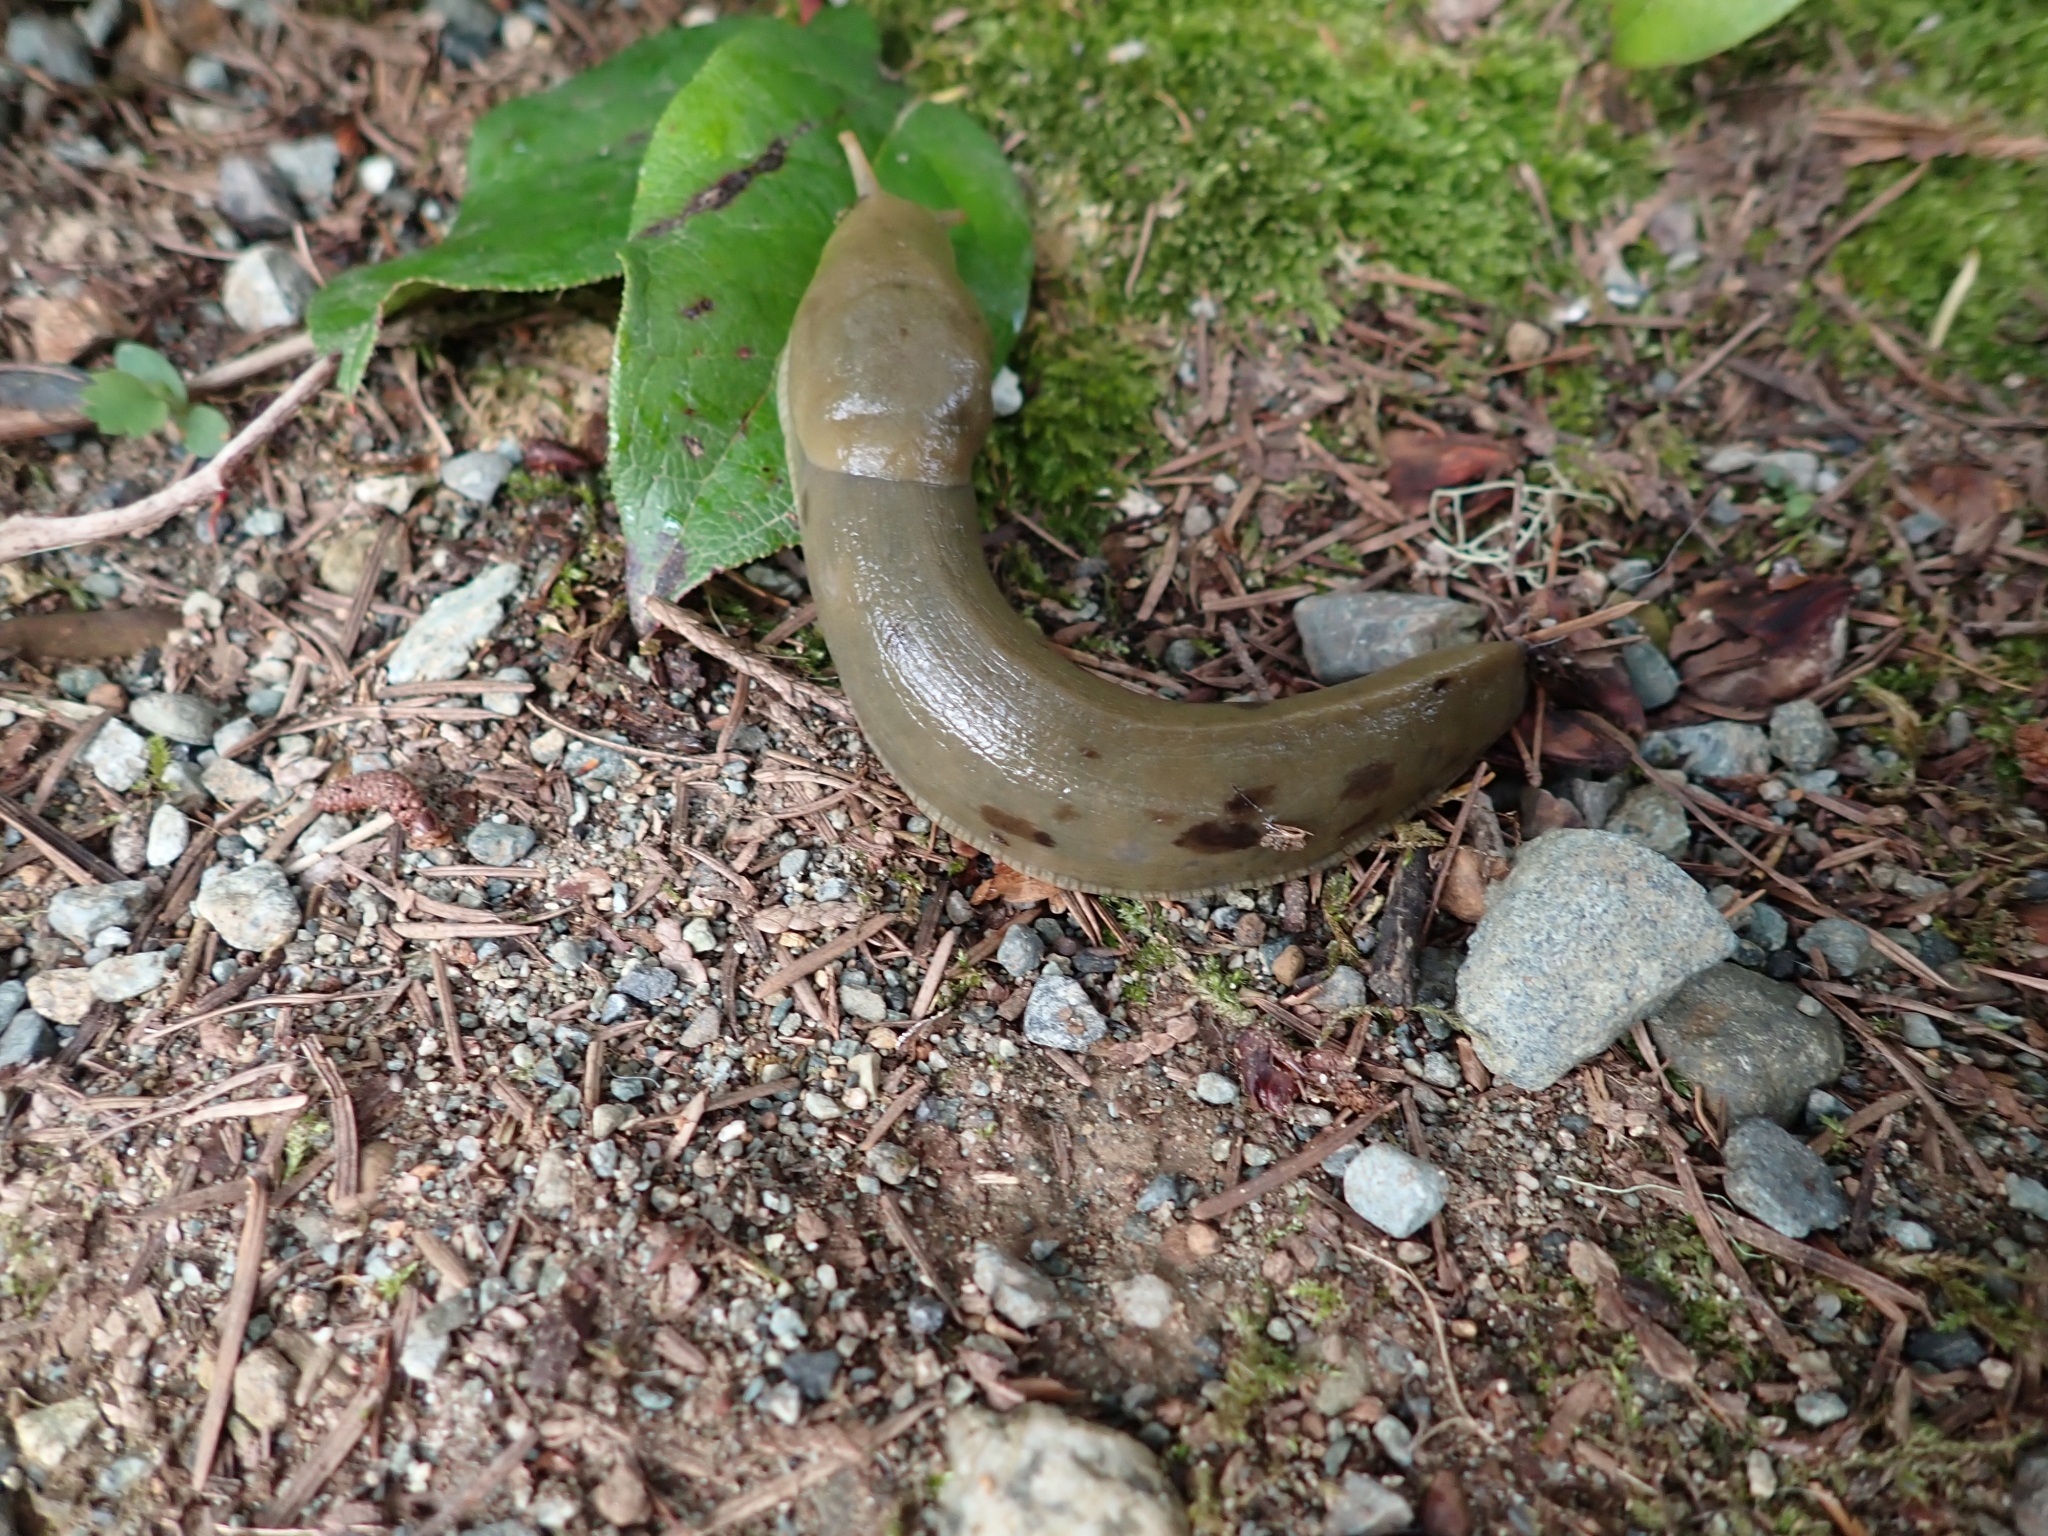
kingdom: Animalia
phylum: Mollusca
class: Gastropoda
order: Stylommatophora
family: Ariolimacidae
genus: Ariolimax
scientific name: Ariolimax columbianus
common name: Pacific banana slug
